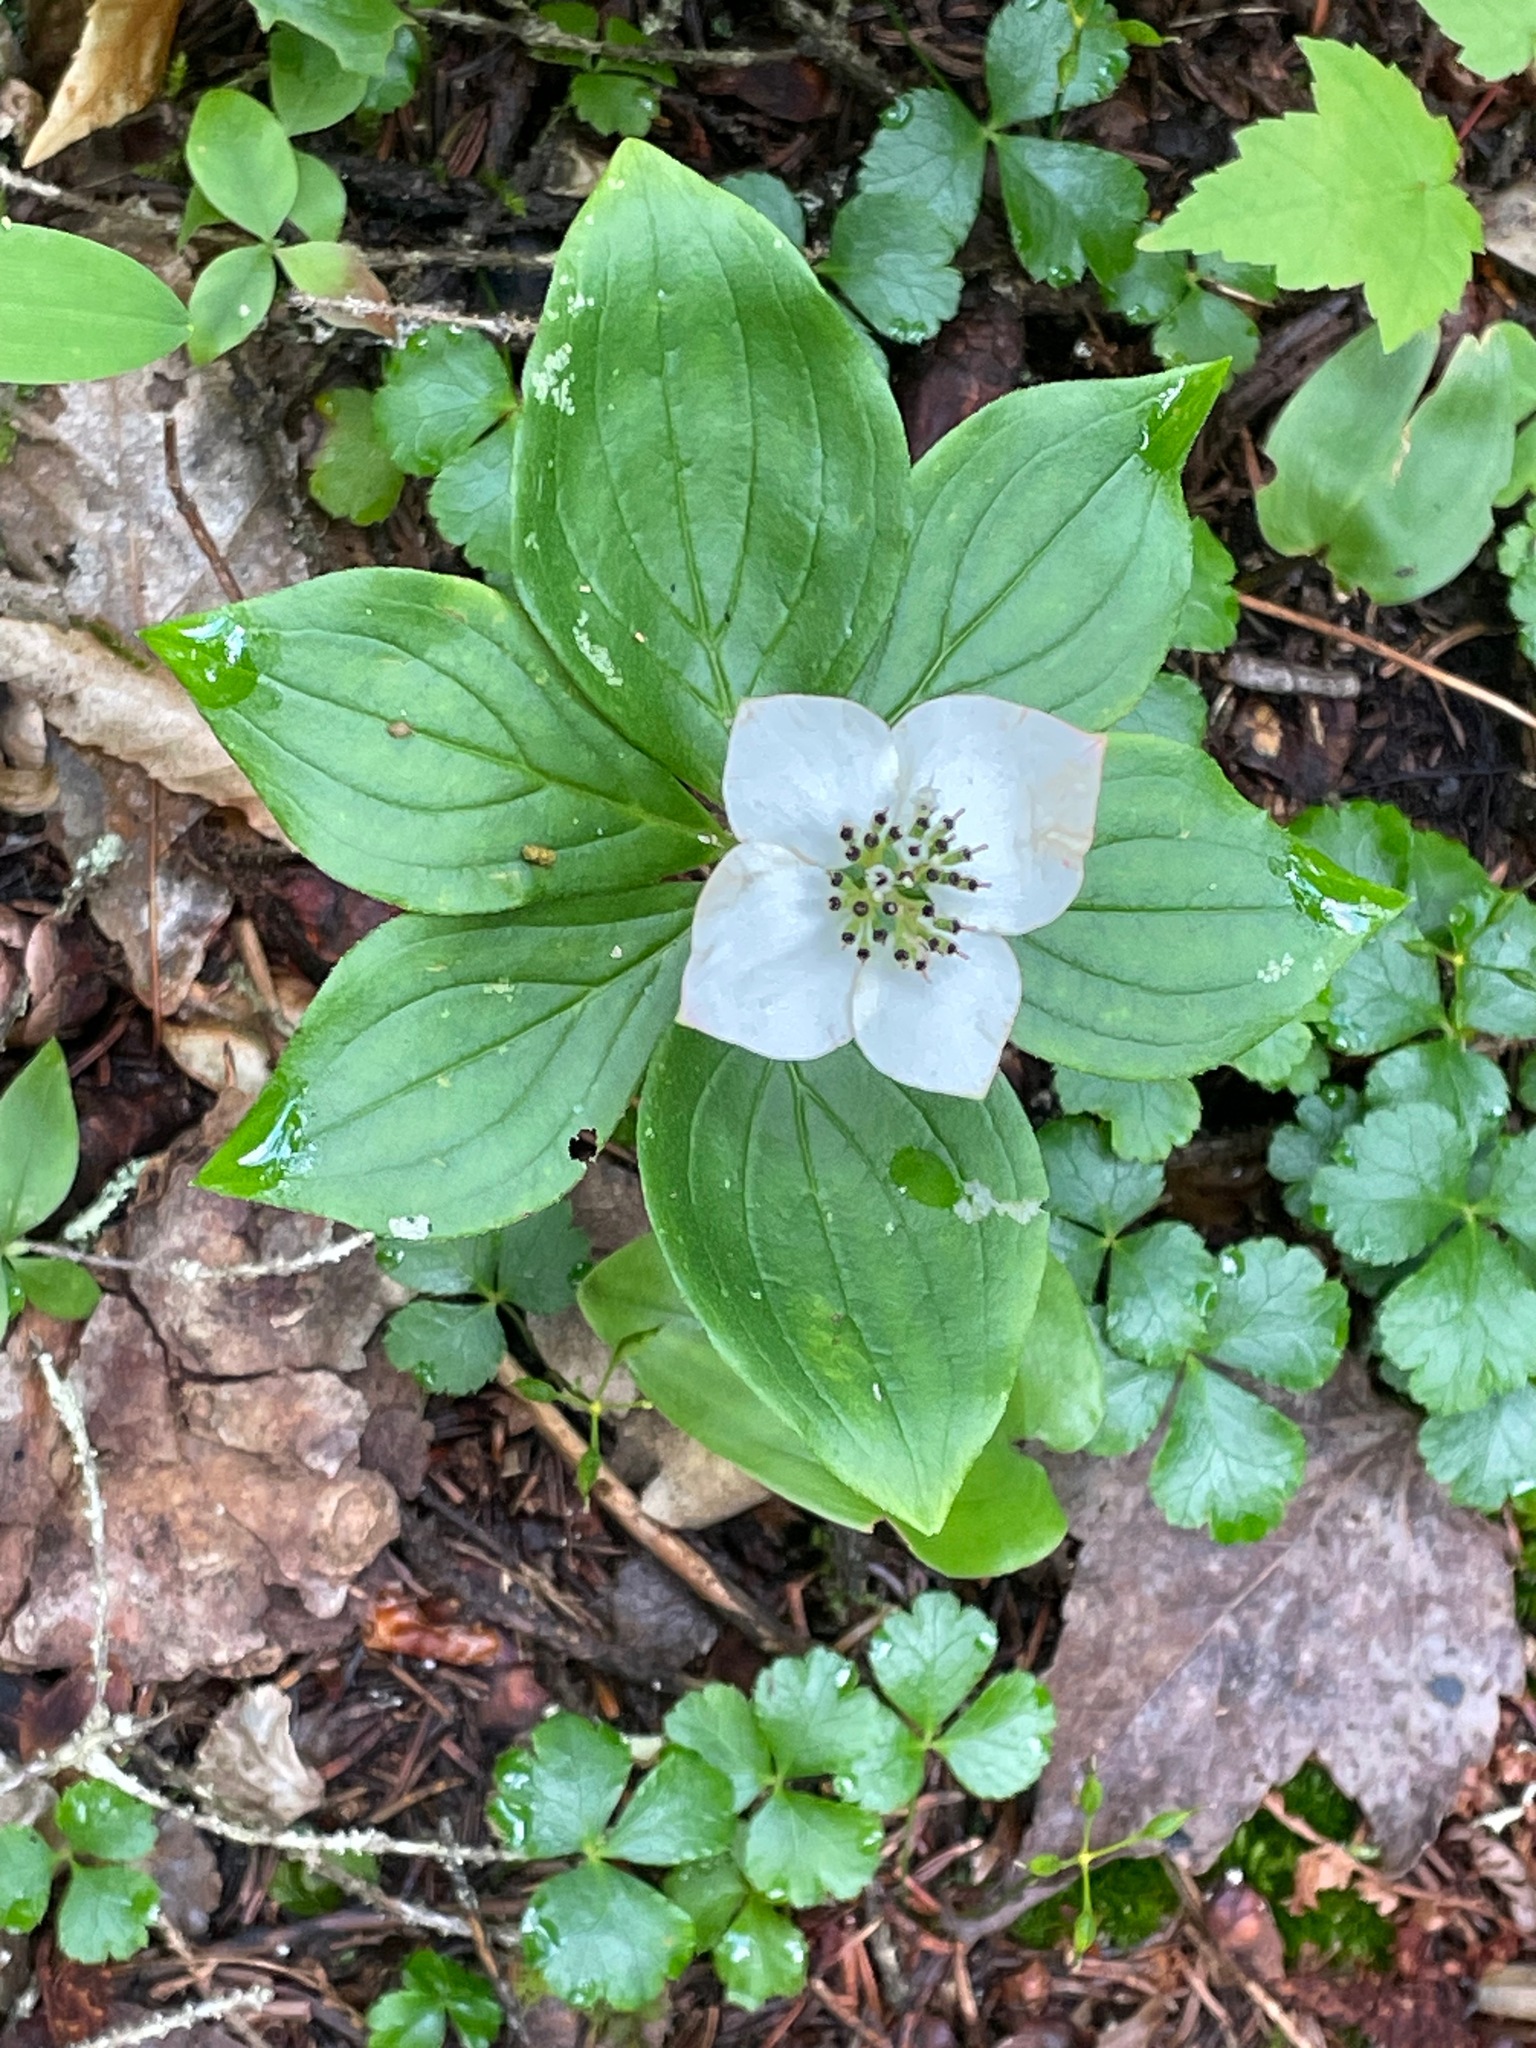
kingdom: Plantae
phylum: Tracheophyta
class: Magnoliopsida
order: Cornales
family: Cornaceae
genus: Cornus
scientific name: Cornus canadensis
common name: Creeping dogwood
